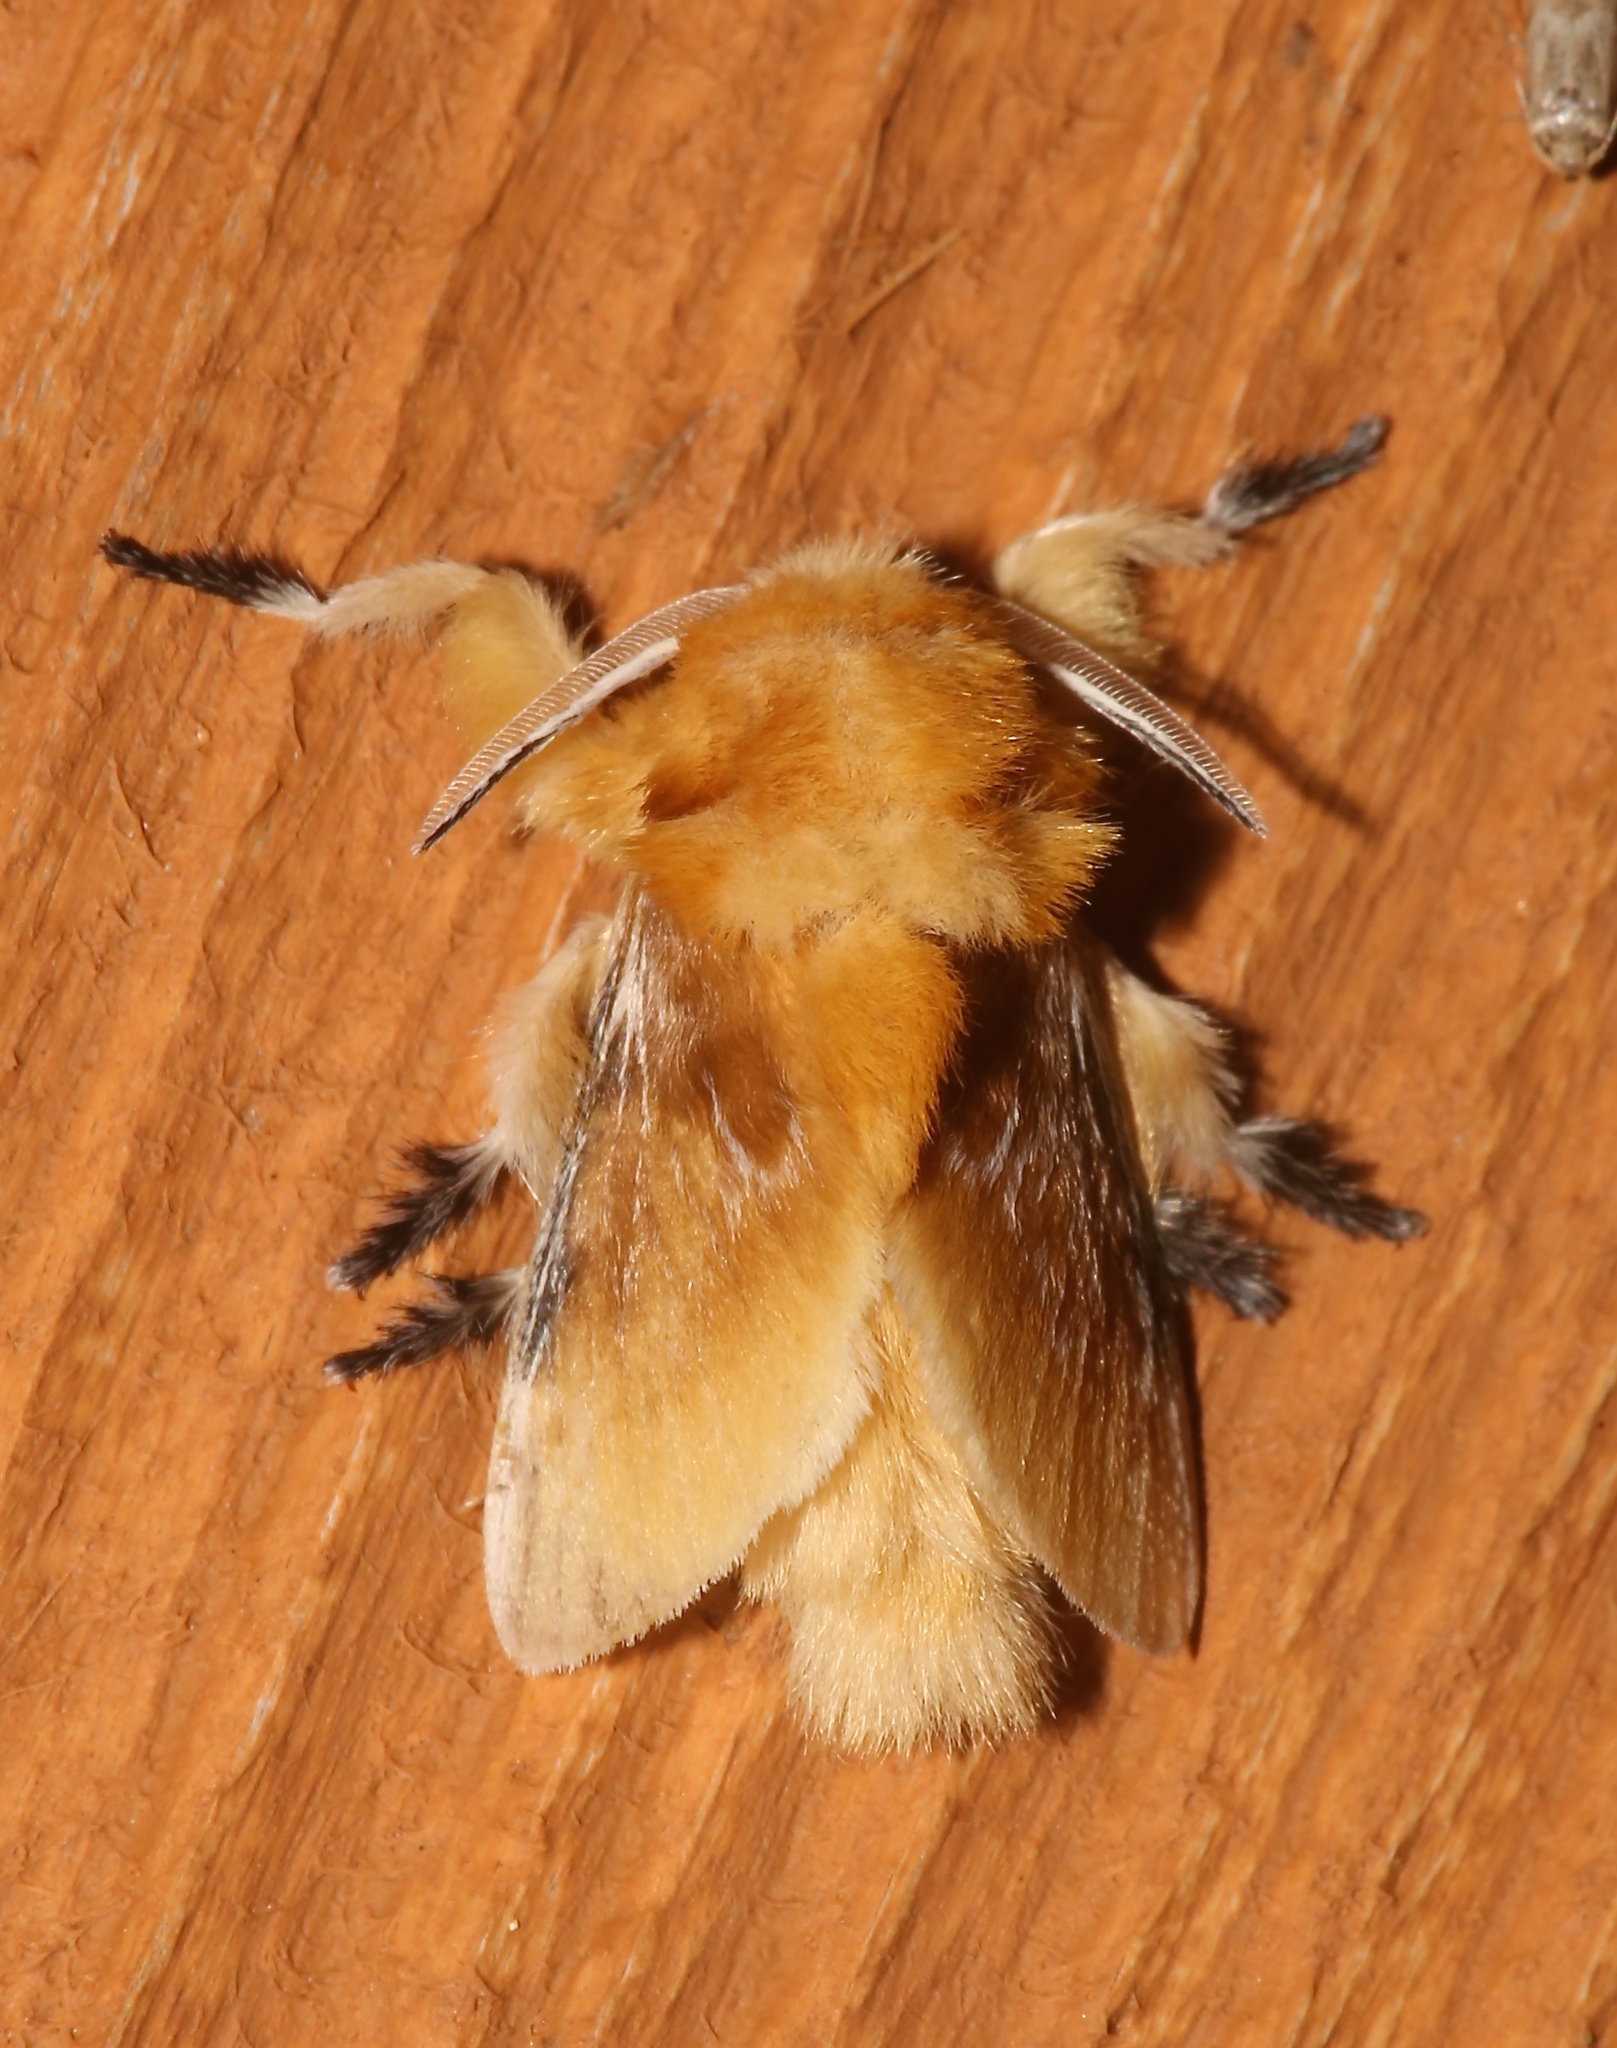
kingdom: Animalia
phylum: Arthropoda
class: Insecta
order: Lepidoptera
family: Megalopygidae
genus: Megalopyge
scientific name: Megalopyge opercularis
